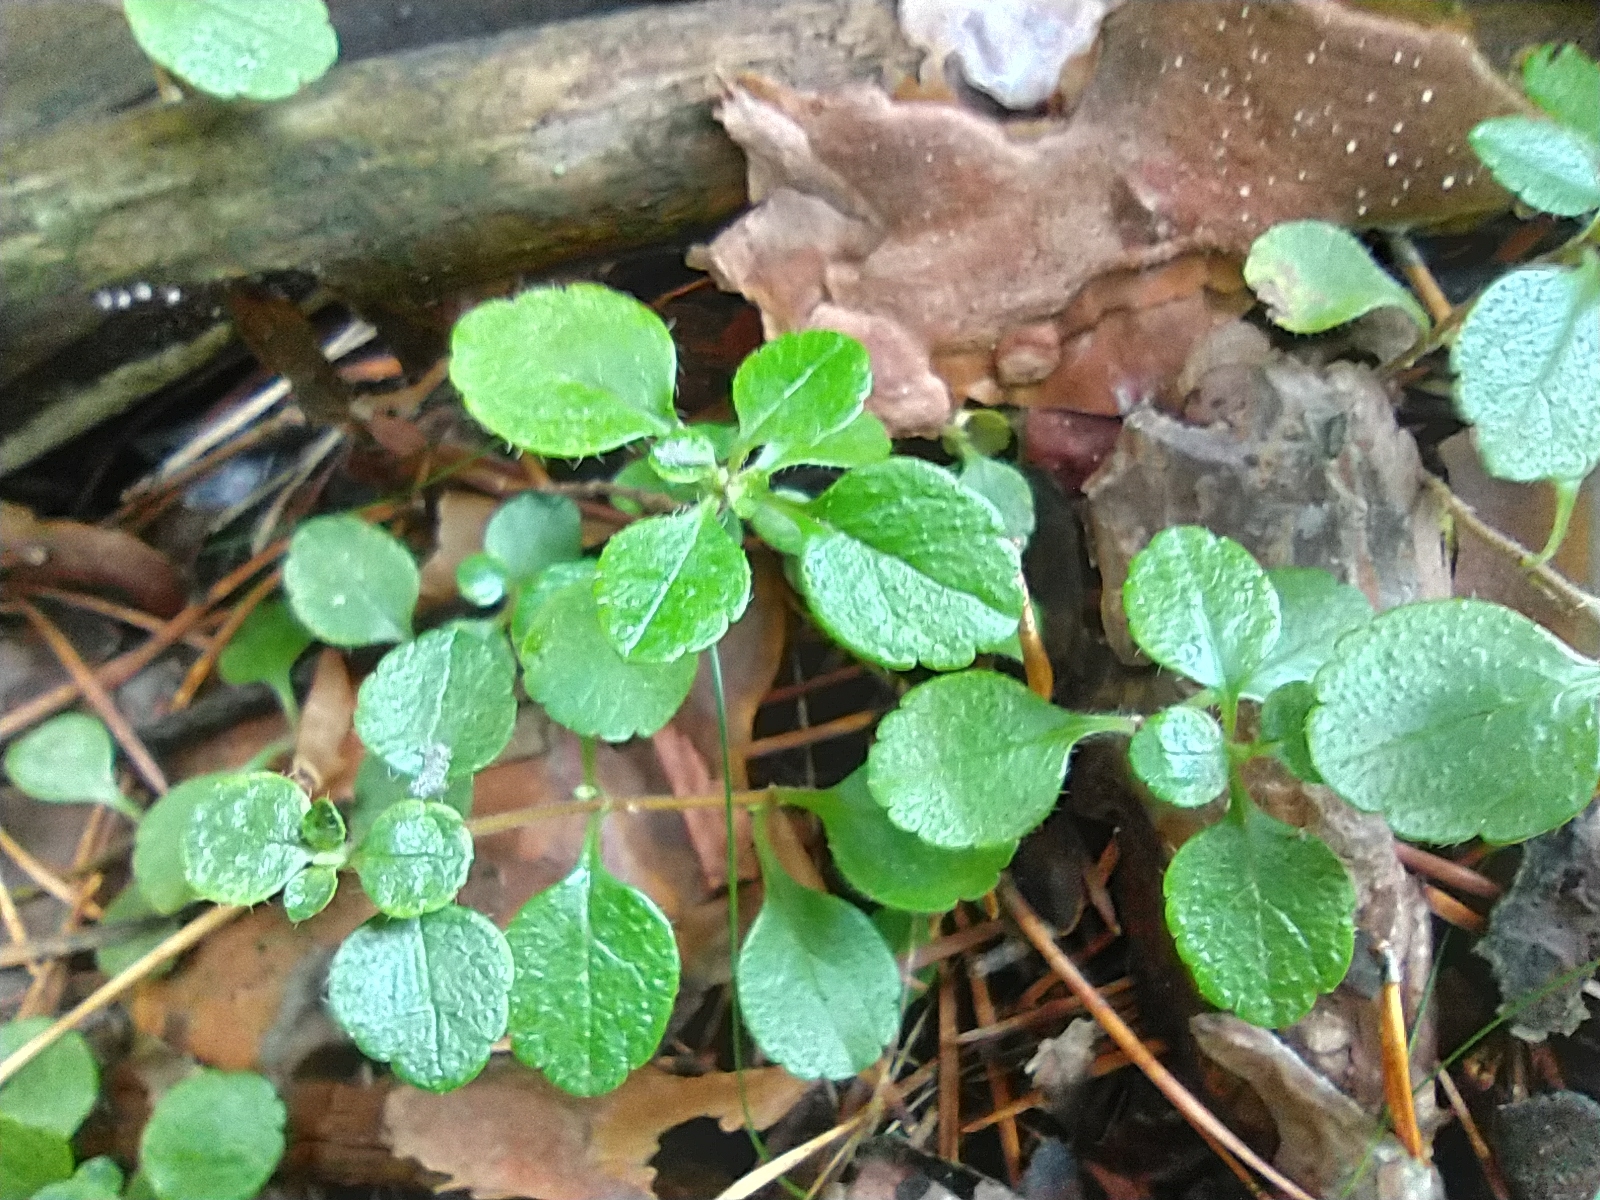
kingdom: Plantae
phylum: Tracheophyta
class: Magnoliopsida
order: Dipsacales
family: Caprifoliaceae
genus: Linnaea
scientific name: Linnaea borealis
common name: Twinflower
